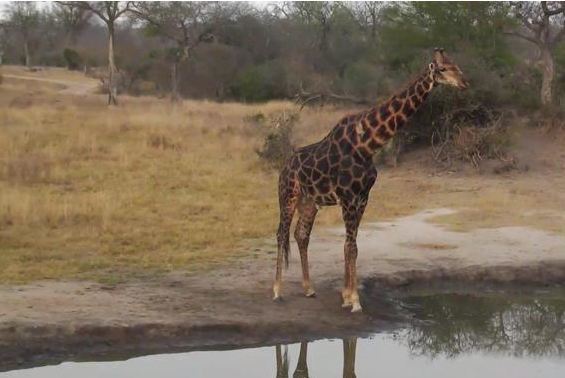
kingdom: Animalia
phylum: Chordata
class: Mammalia
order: Artiodactyla
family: Giraffidae
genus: Giraffa
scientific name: Giraffa giraffa
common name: Southern giraffe
